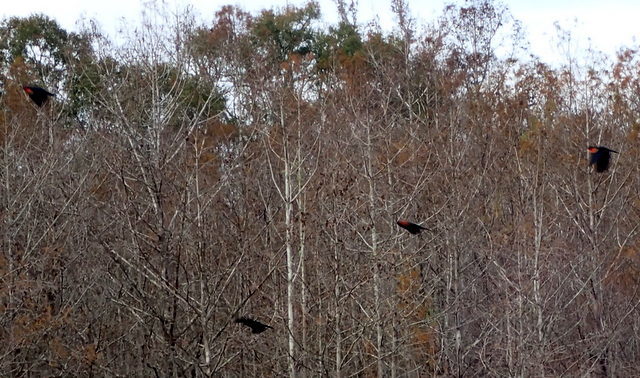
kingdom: Animalia
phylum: Chordata
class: Aves
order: Passeriformes
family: Icteridae
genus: Agelaius
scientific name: Agelaius phoeniceus
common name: Red-winged blackbird
